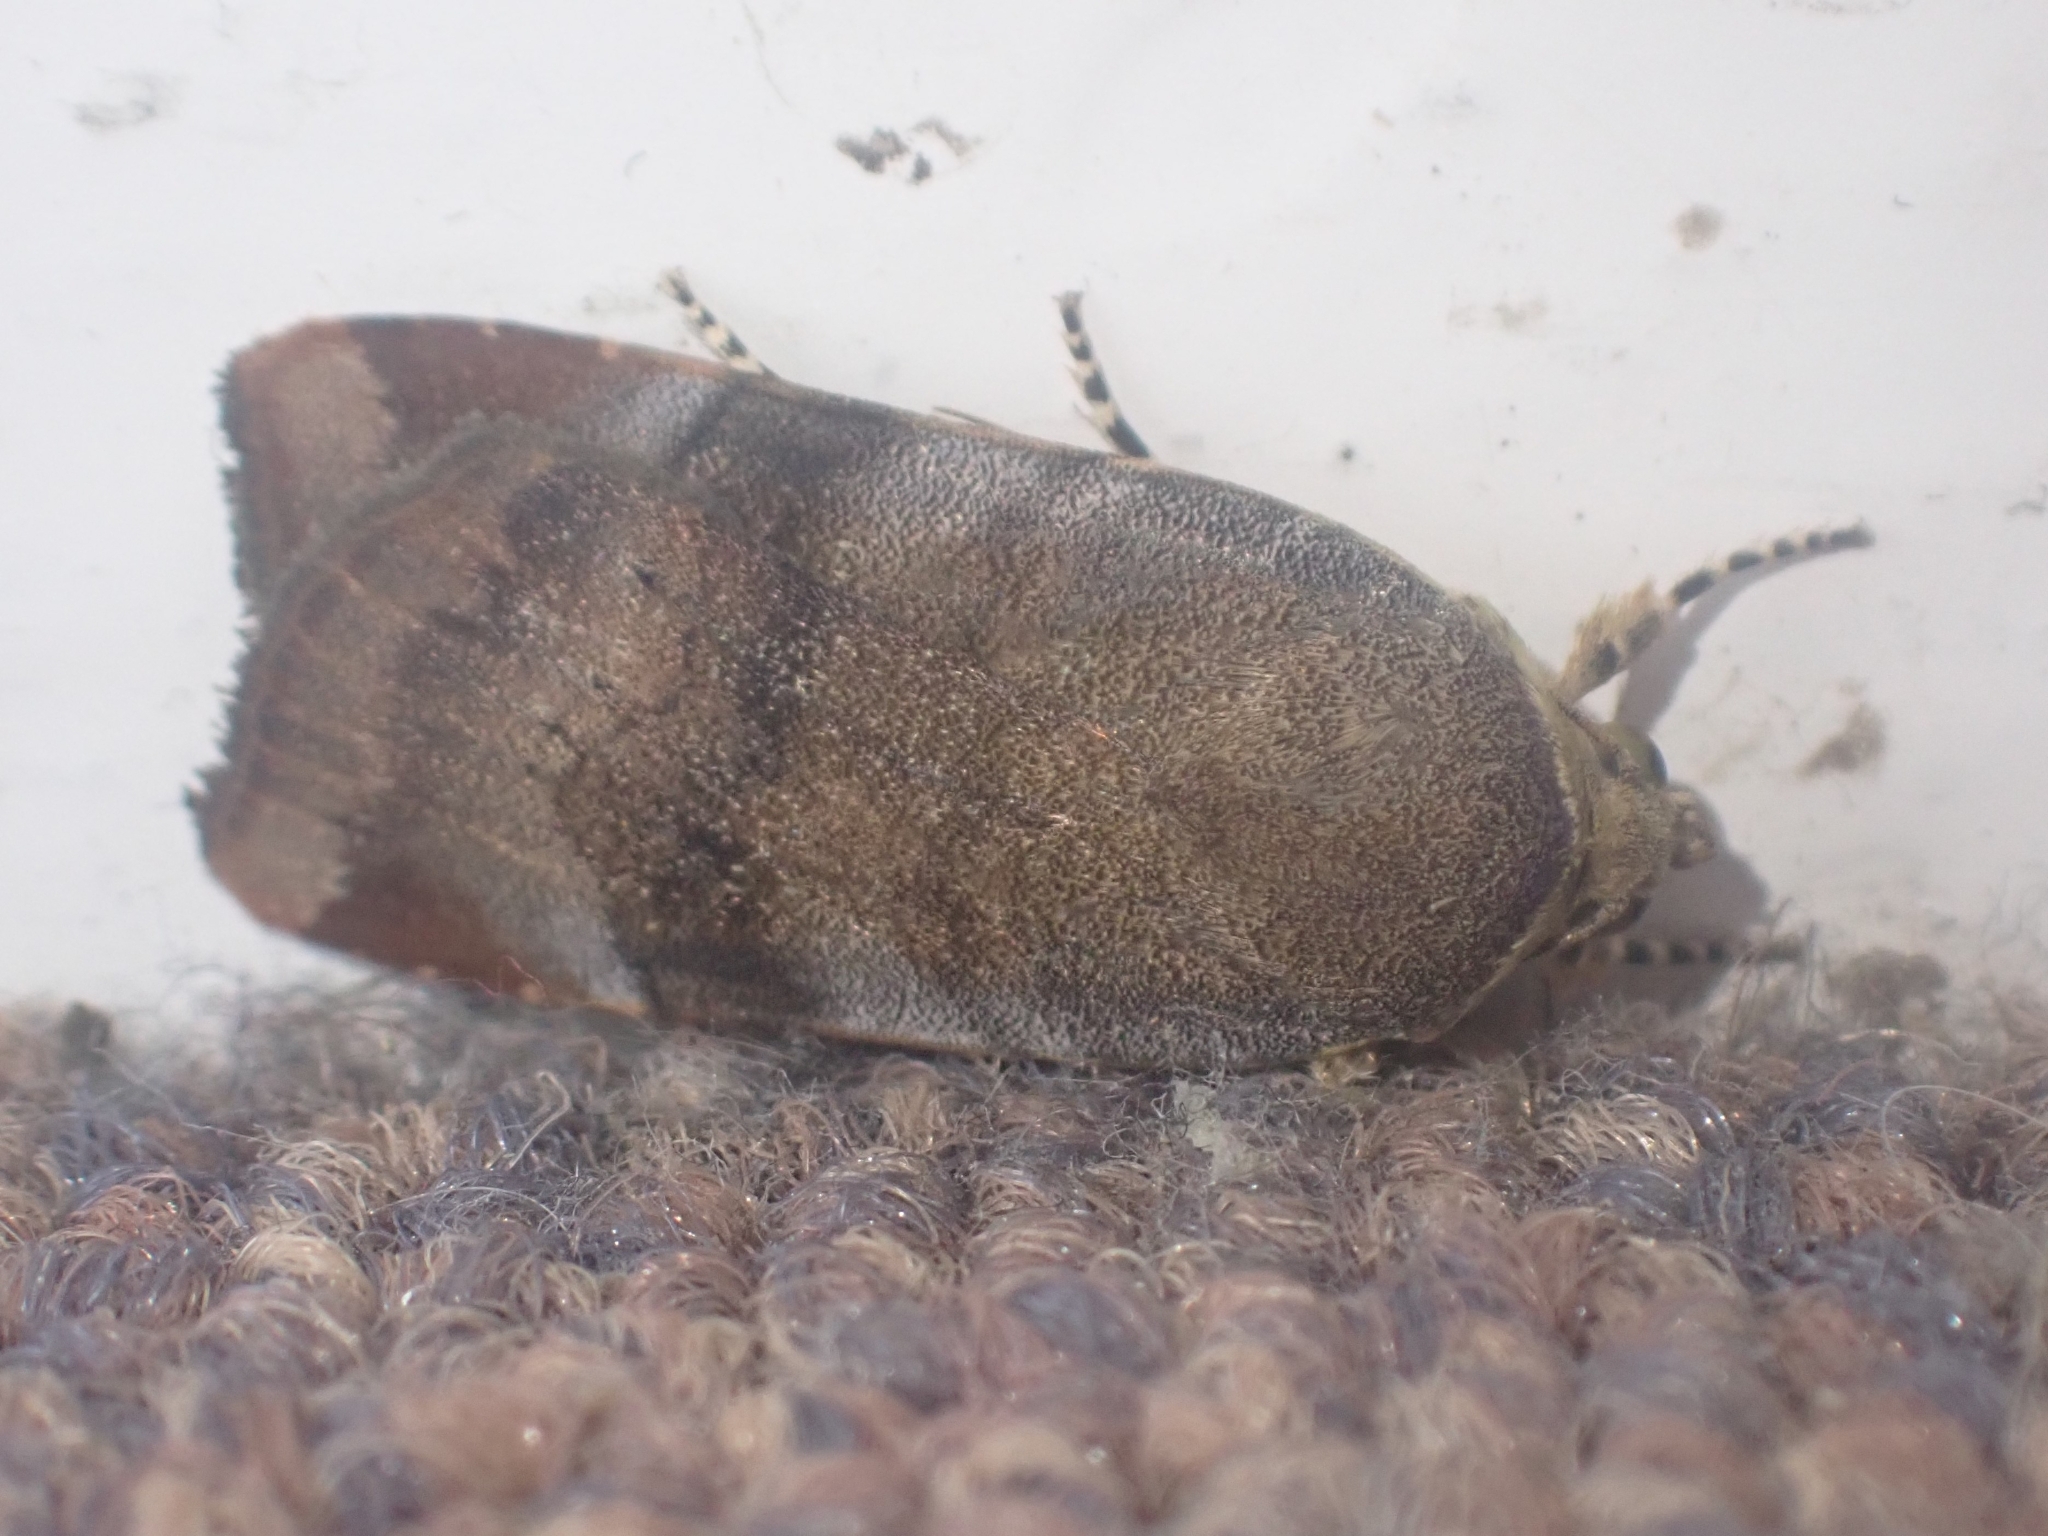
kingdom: Animalia
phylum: Arthropoda
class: Insecta
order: Lepidoptera
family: Noctuidae
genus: Noctua
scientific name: Noctua
